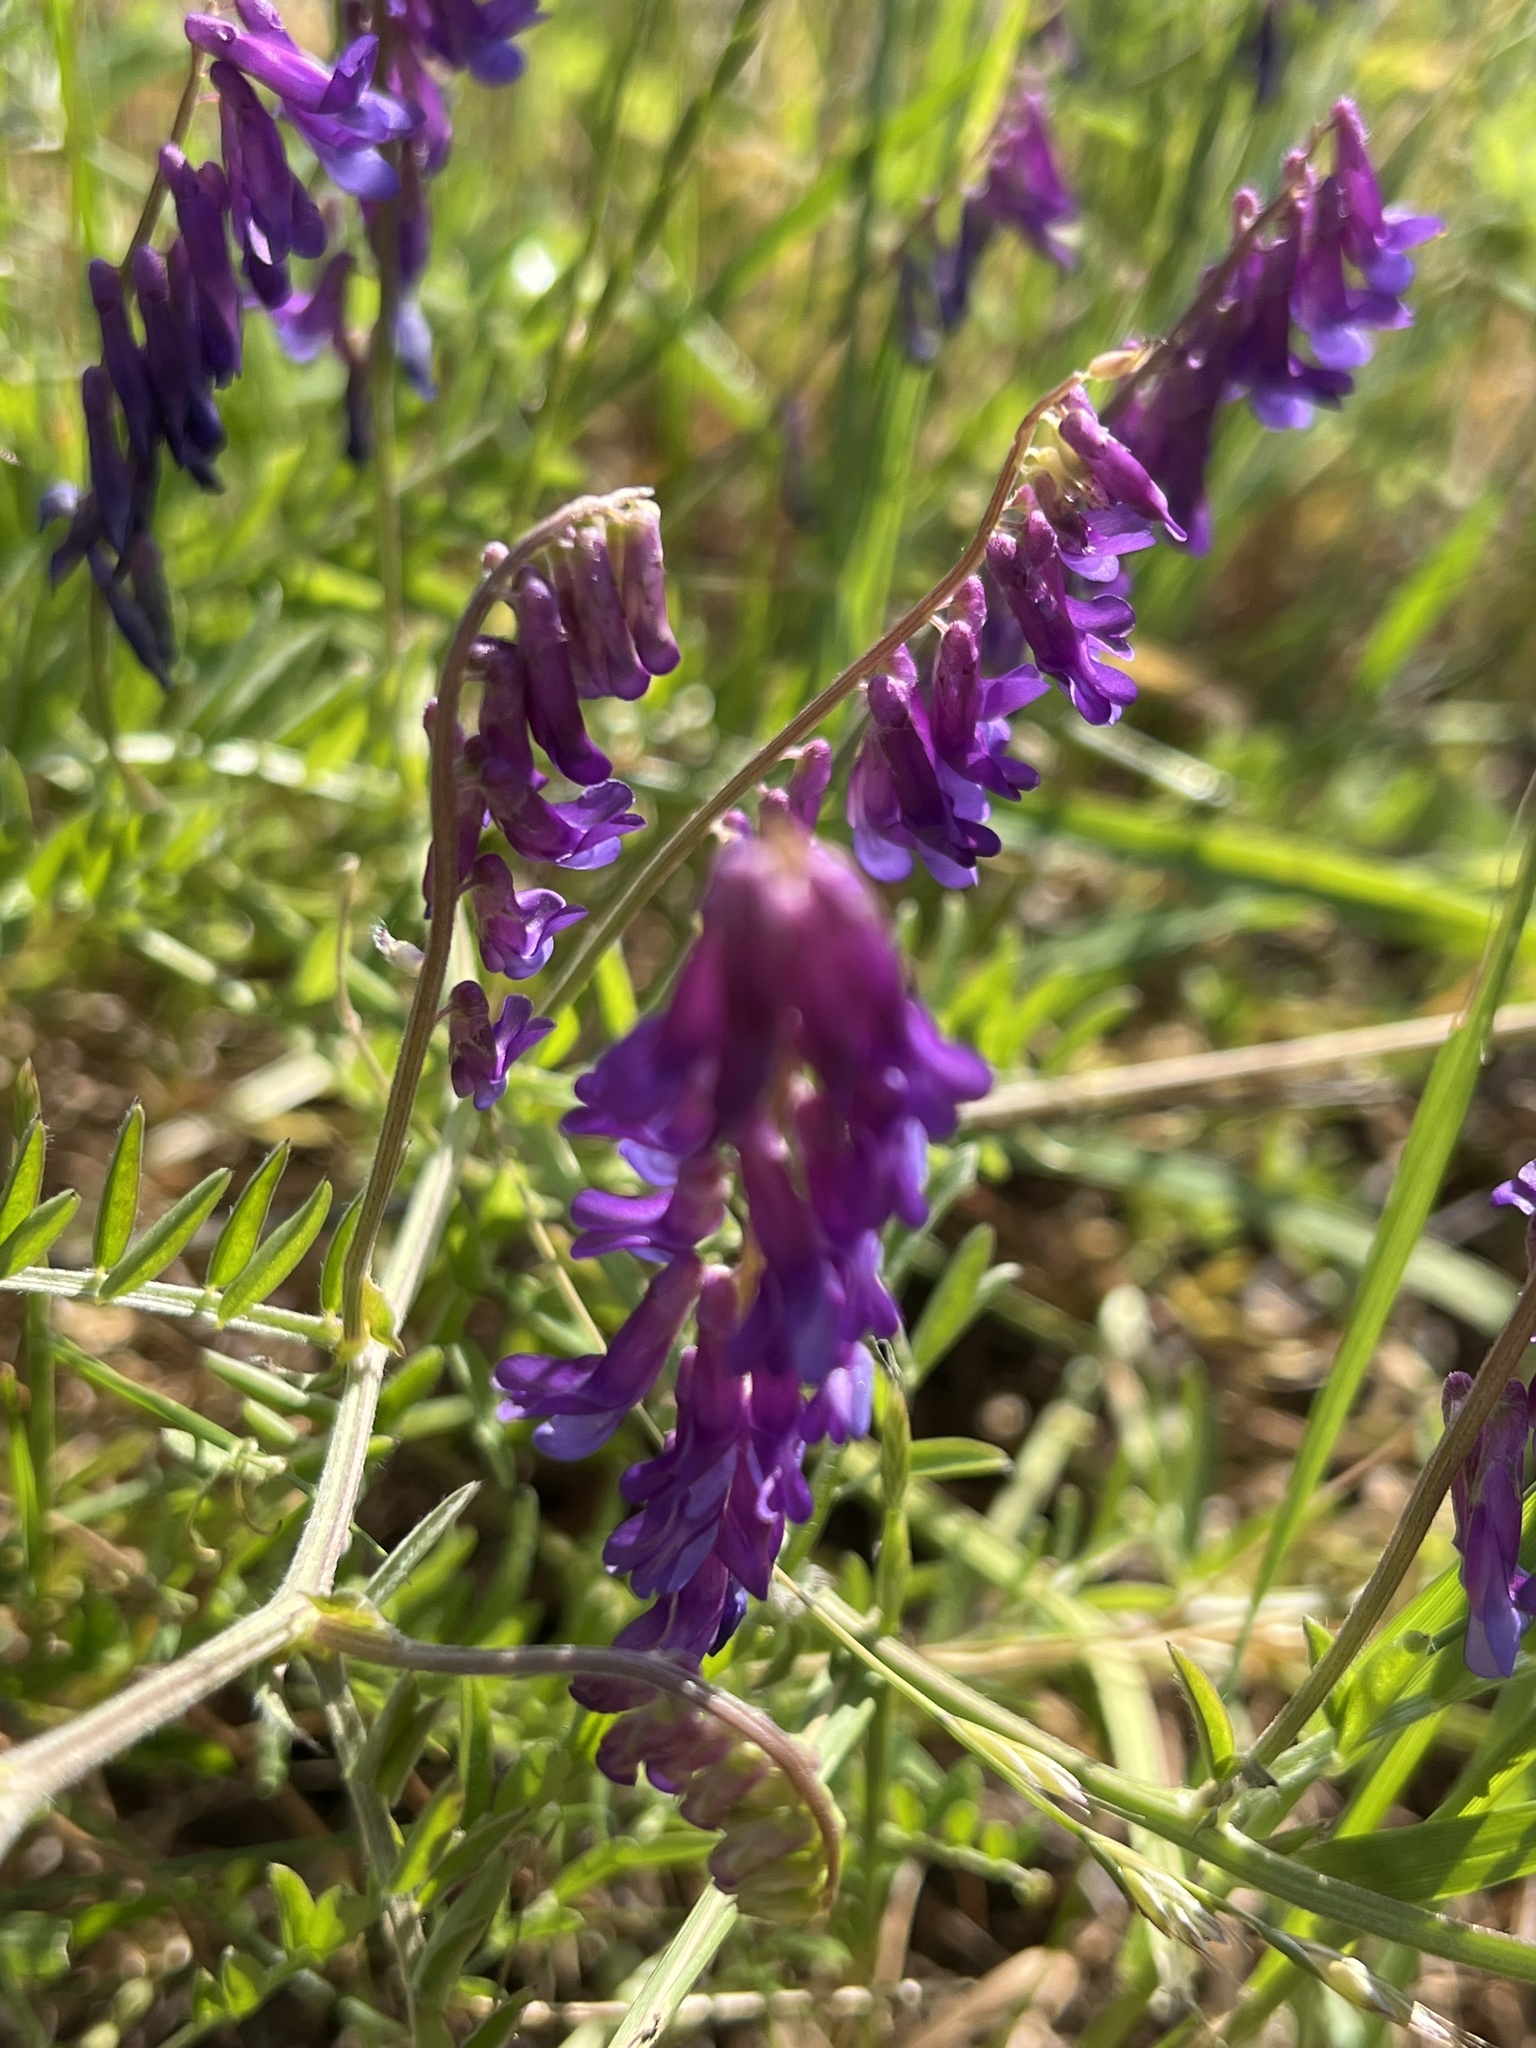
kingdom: Plantae
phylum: Tracheophyta
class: Magnoliopsida
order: Fabales
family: Fabaceae
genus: Vicia
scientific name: Vicia villosa
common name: Fodder vetch
